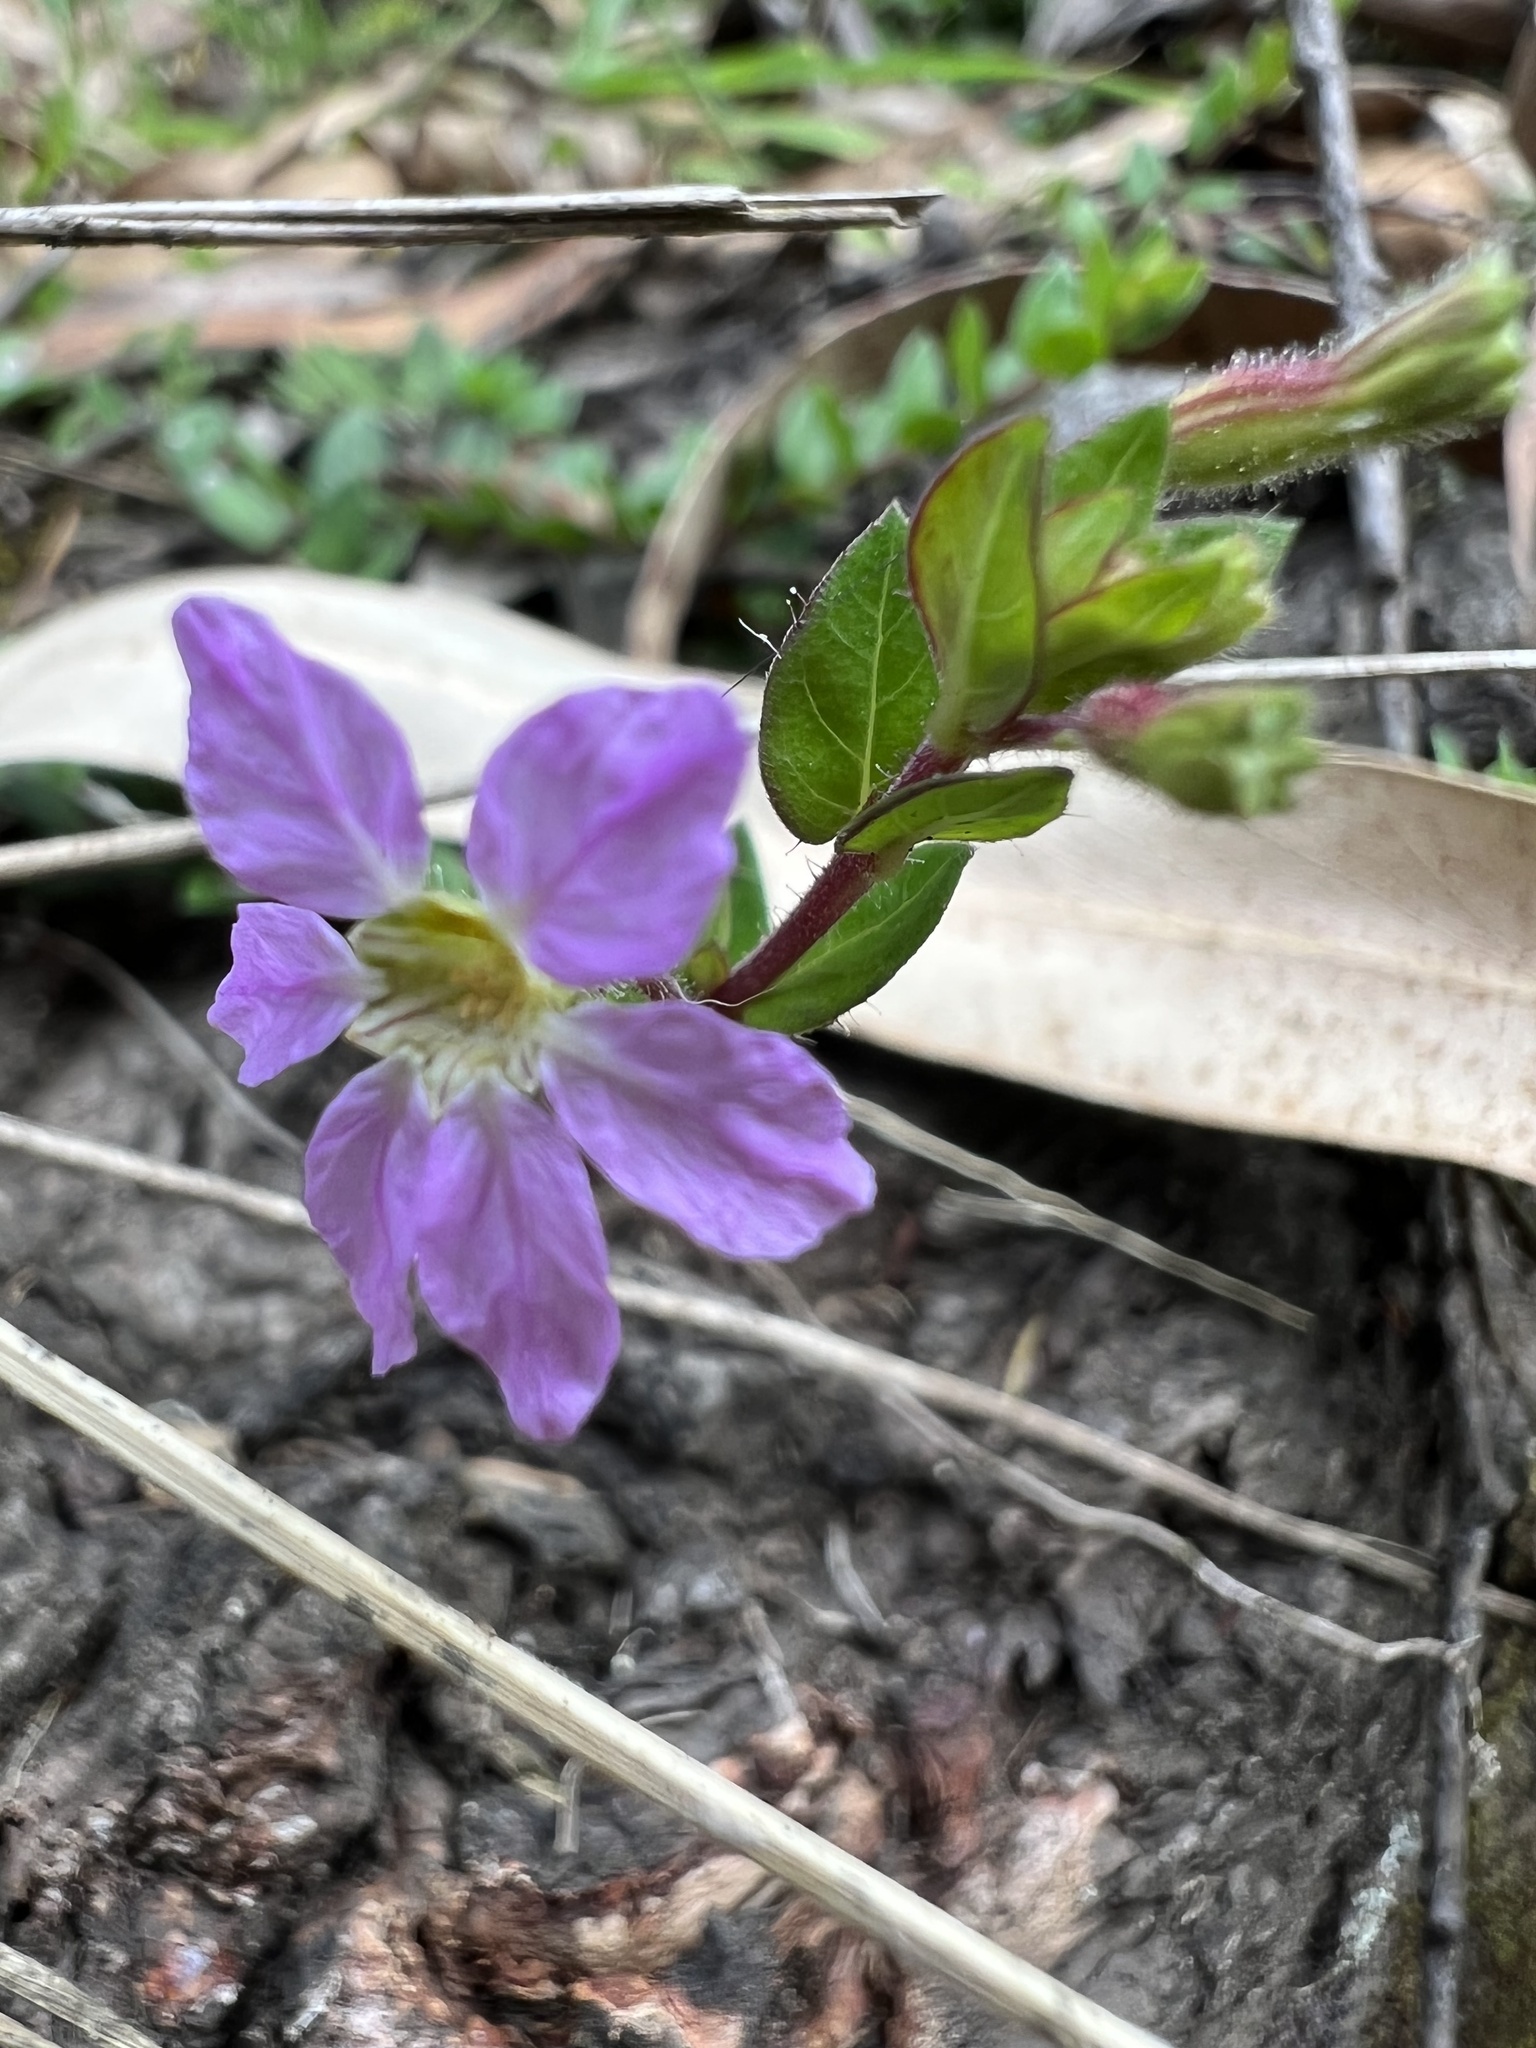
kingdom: Plantae
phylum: Tracheophyta
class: Magnoliopsida
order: Myrtales
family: Lythraceae
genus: Cuphea
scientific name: Cuphea ciliata
